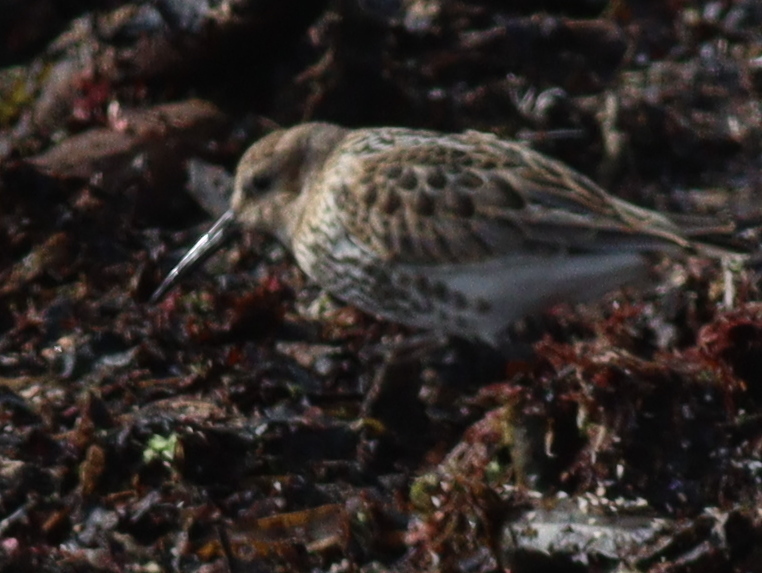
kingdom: Animalia
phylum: Chordata
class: Aves
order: Charadriiformes
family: Scolopacidae
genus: Calidris
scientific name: Calidris alpina
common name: Dunlin
